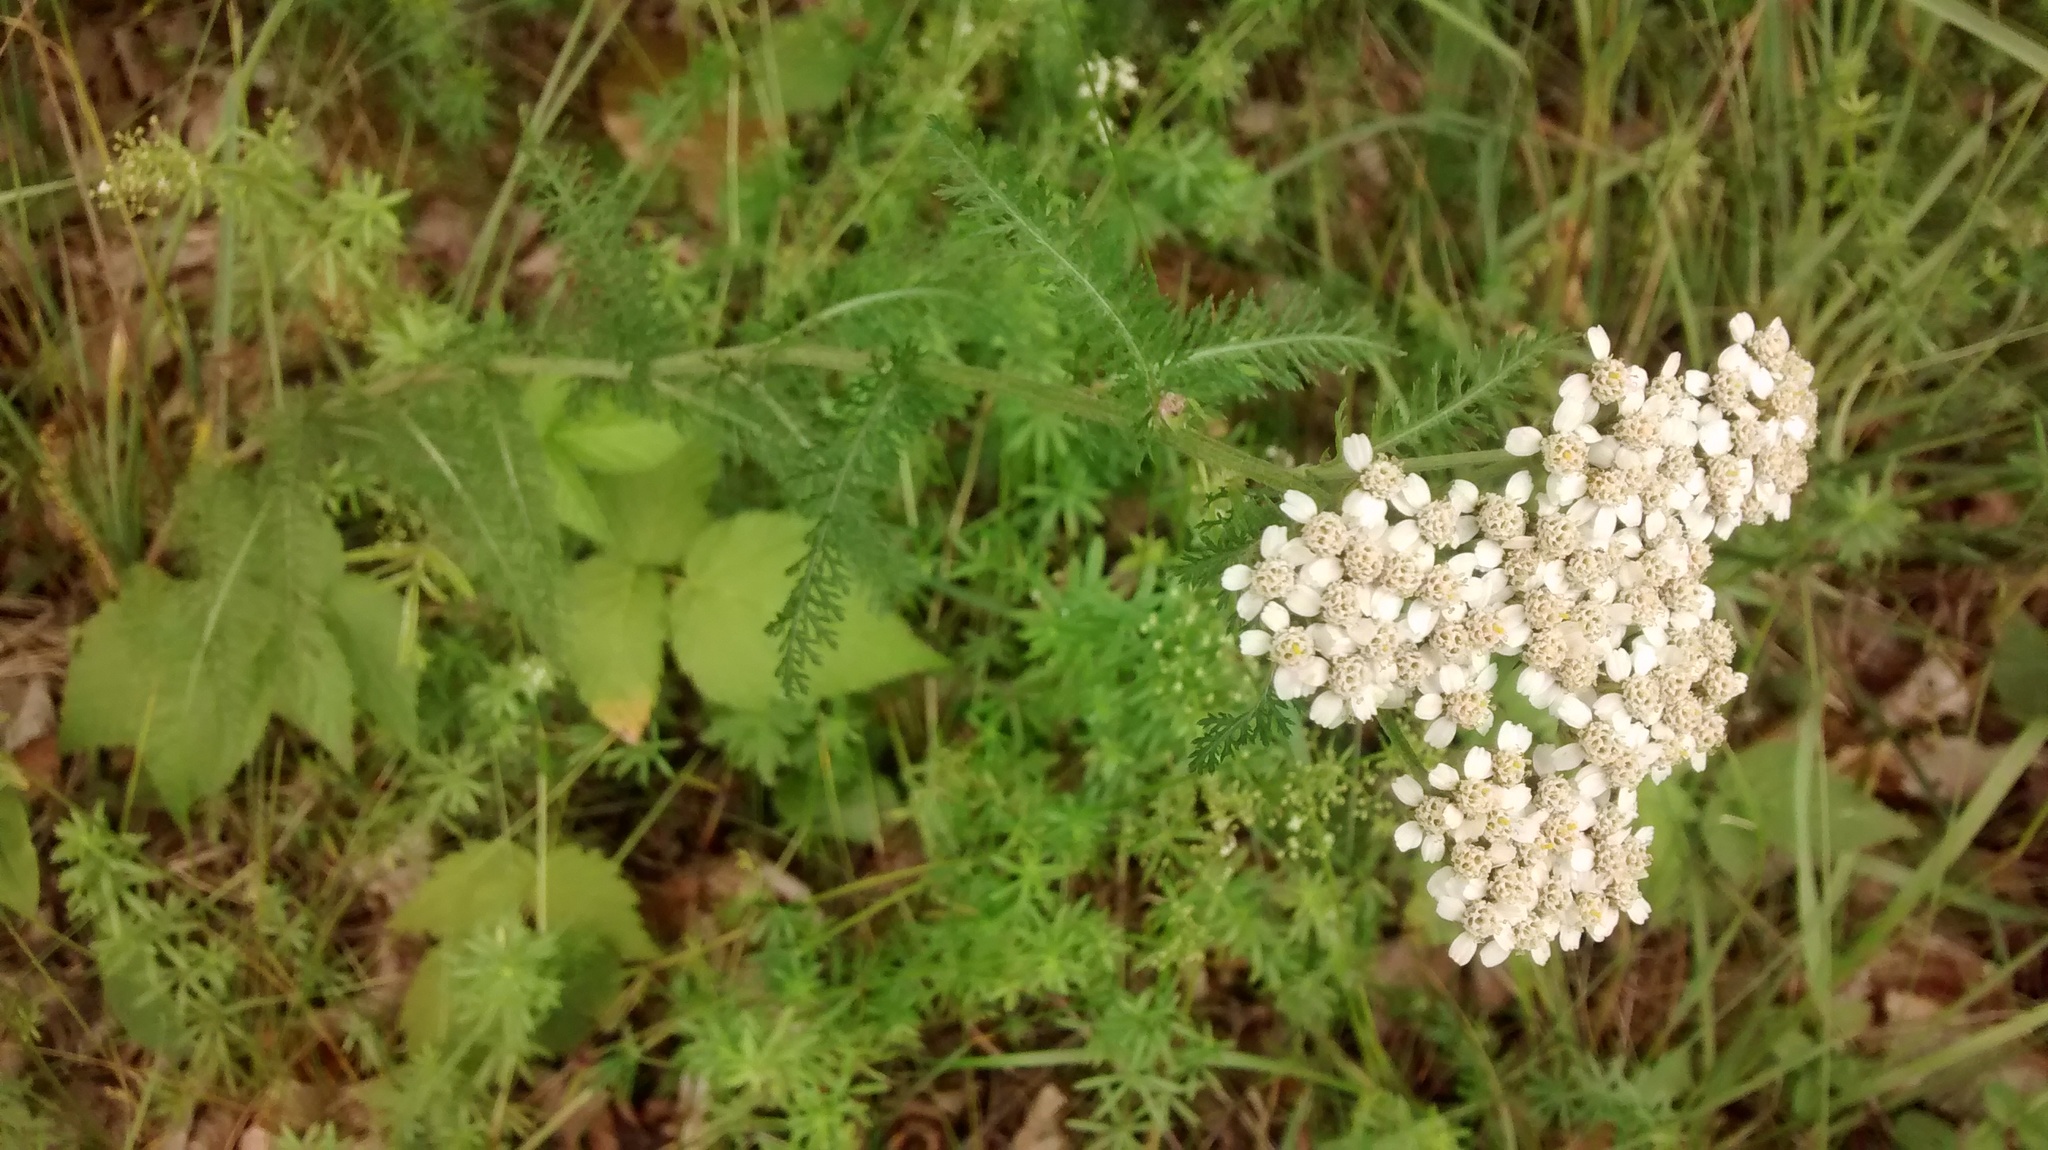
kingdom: Plantae
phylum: Tracheophyta
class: Magnoliopsida
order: Asterales
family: Asteraceae
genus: Achillea
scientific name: Achillea millefolium
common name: Yarrow
